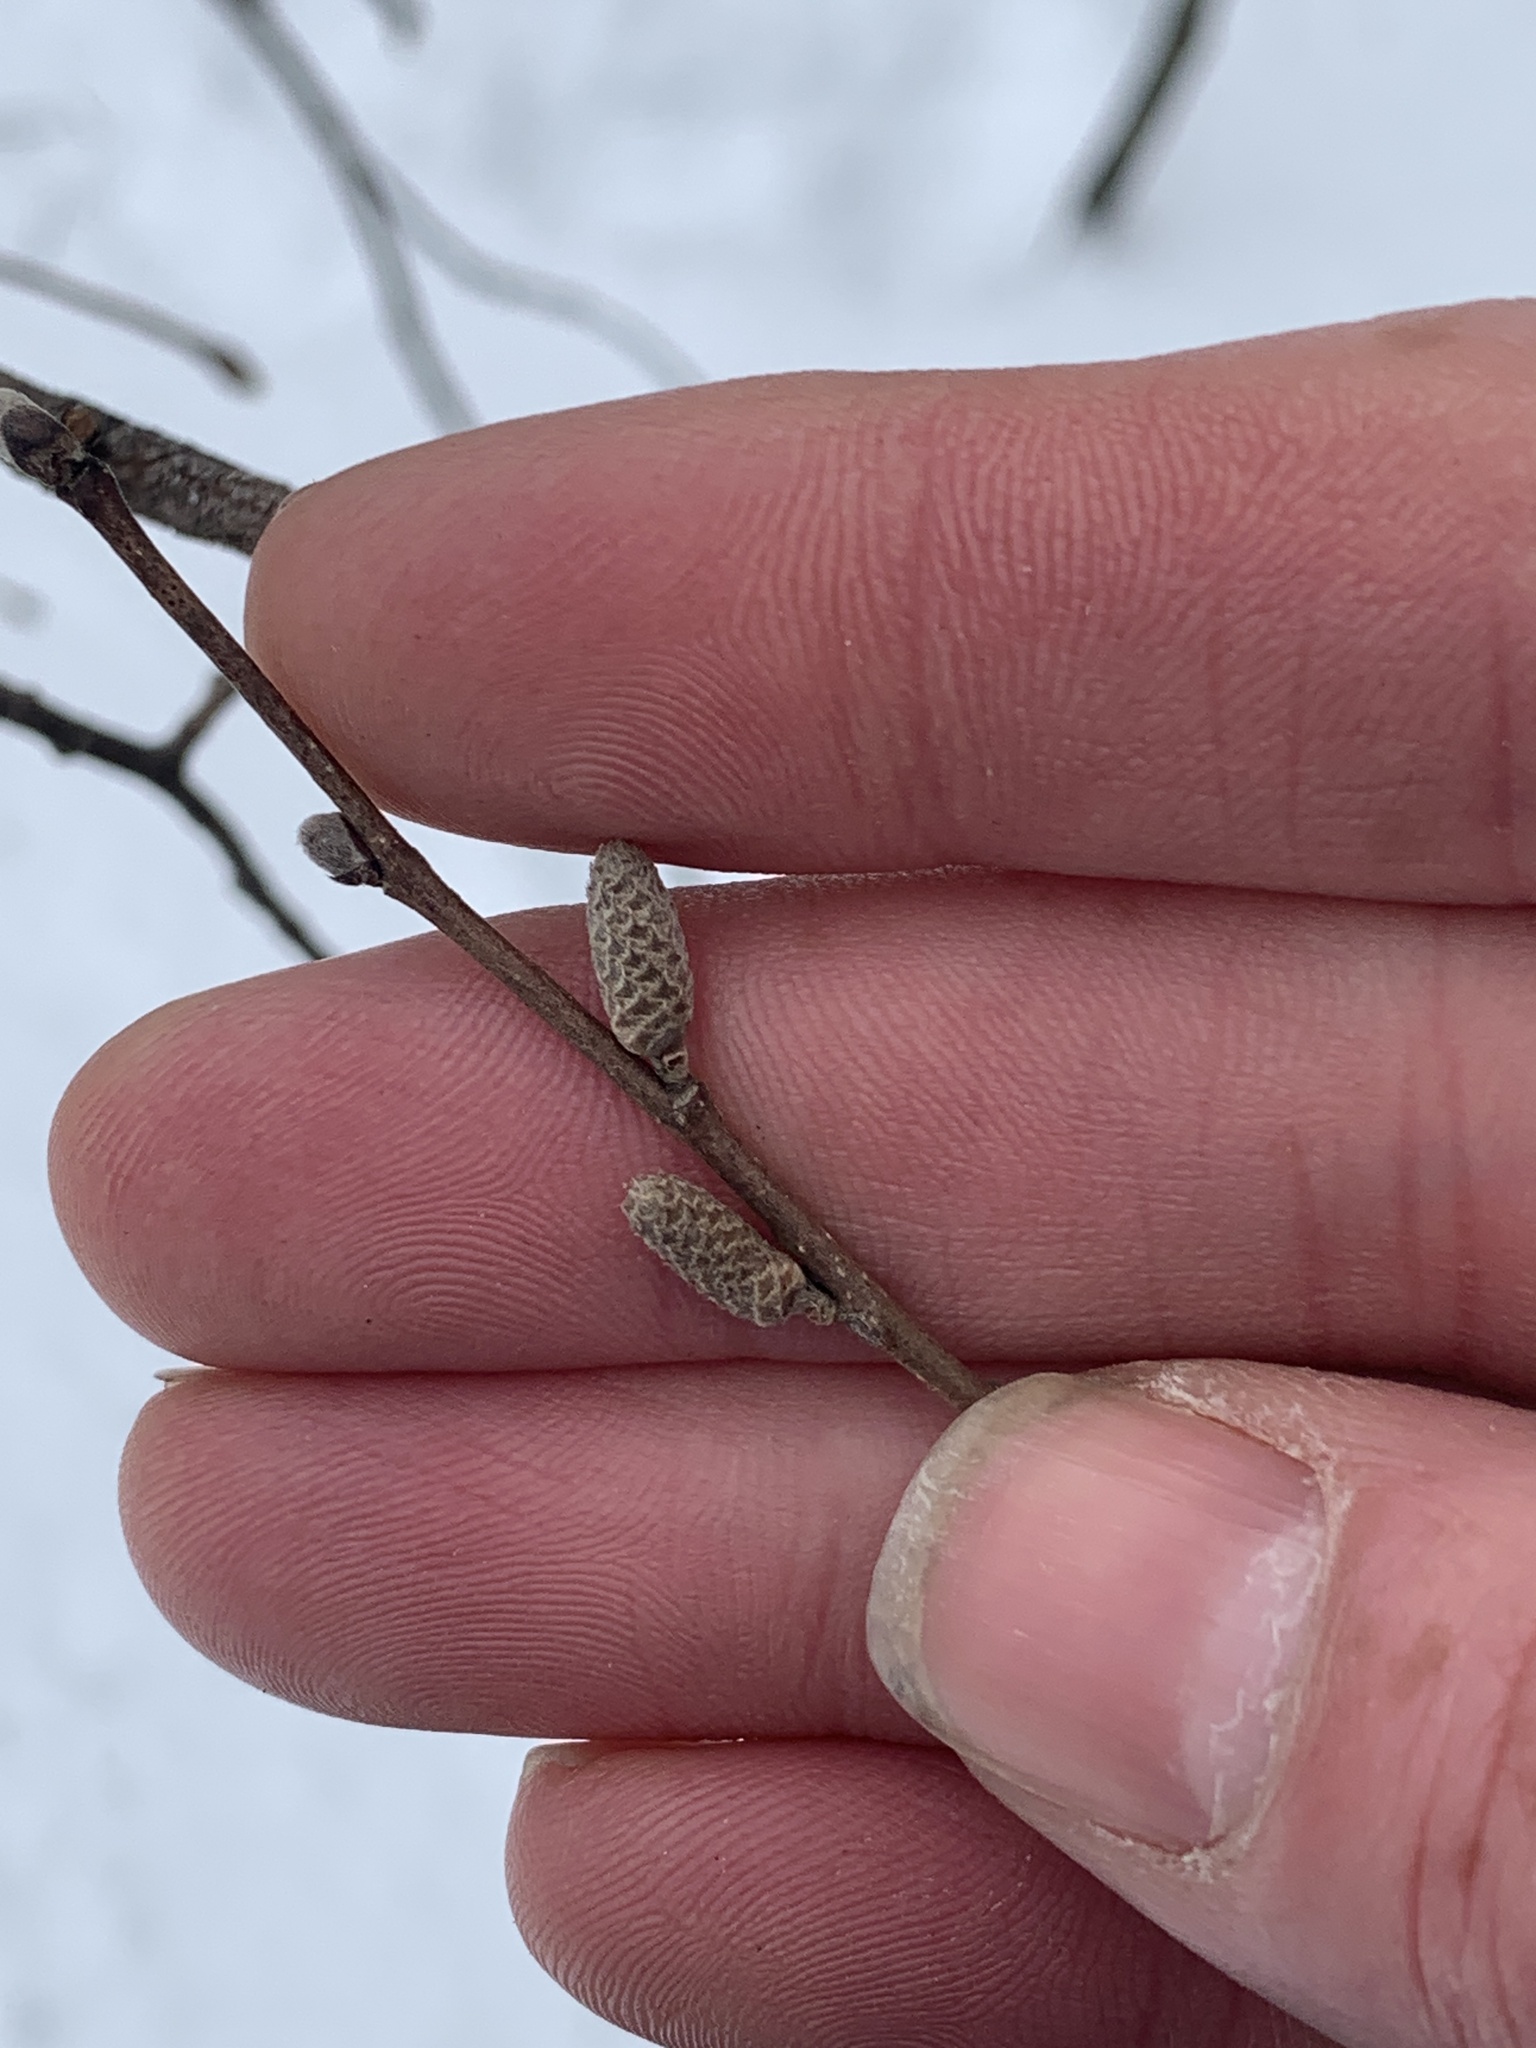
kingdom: Plantae
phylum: Tracheophyta
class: Magnoliopsida
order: Fagales
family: Betulaceae
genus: Corylus
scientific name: Corylus cornuta
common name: Beaked hazel
